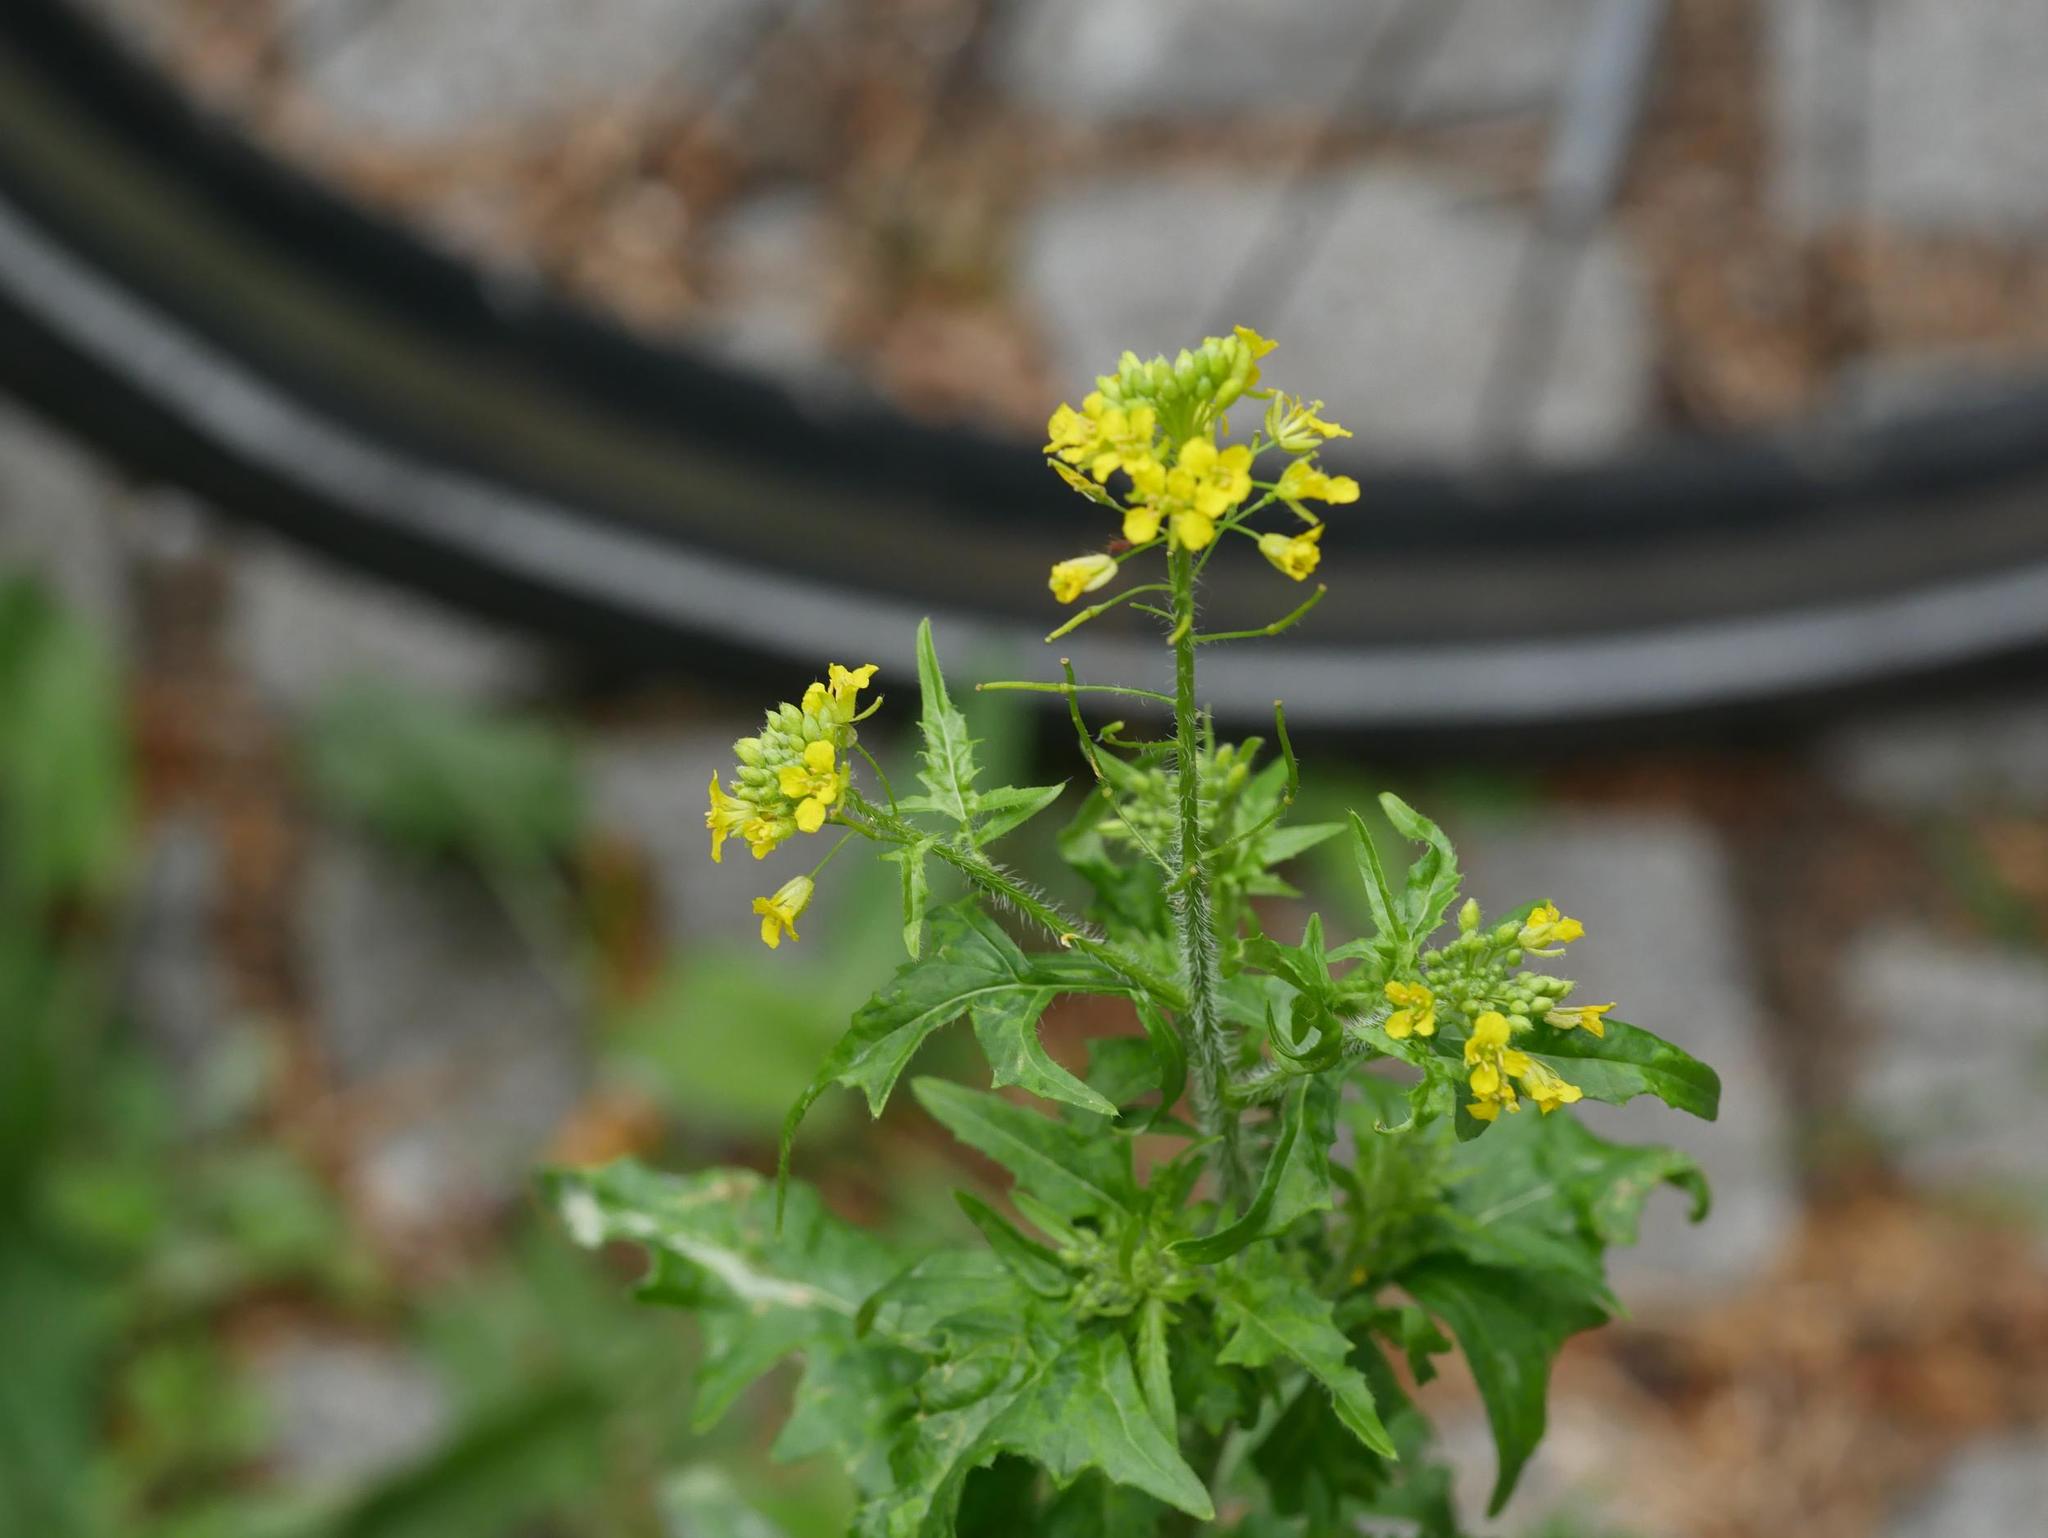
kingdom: Plantae
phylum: Tracheophyta
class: Magnoliopsida
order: Brassicales
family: Brassicaceae
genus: Sisymbrium
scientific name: Sisymbrium loeselii
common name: False london-rocket
